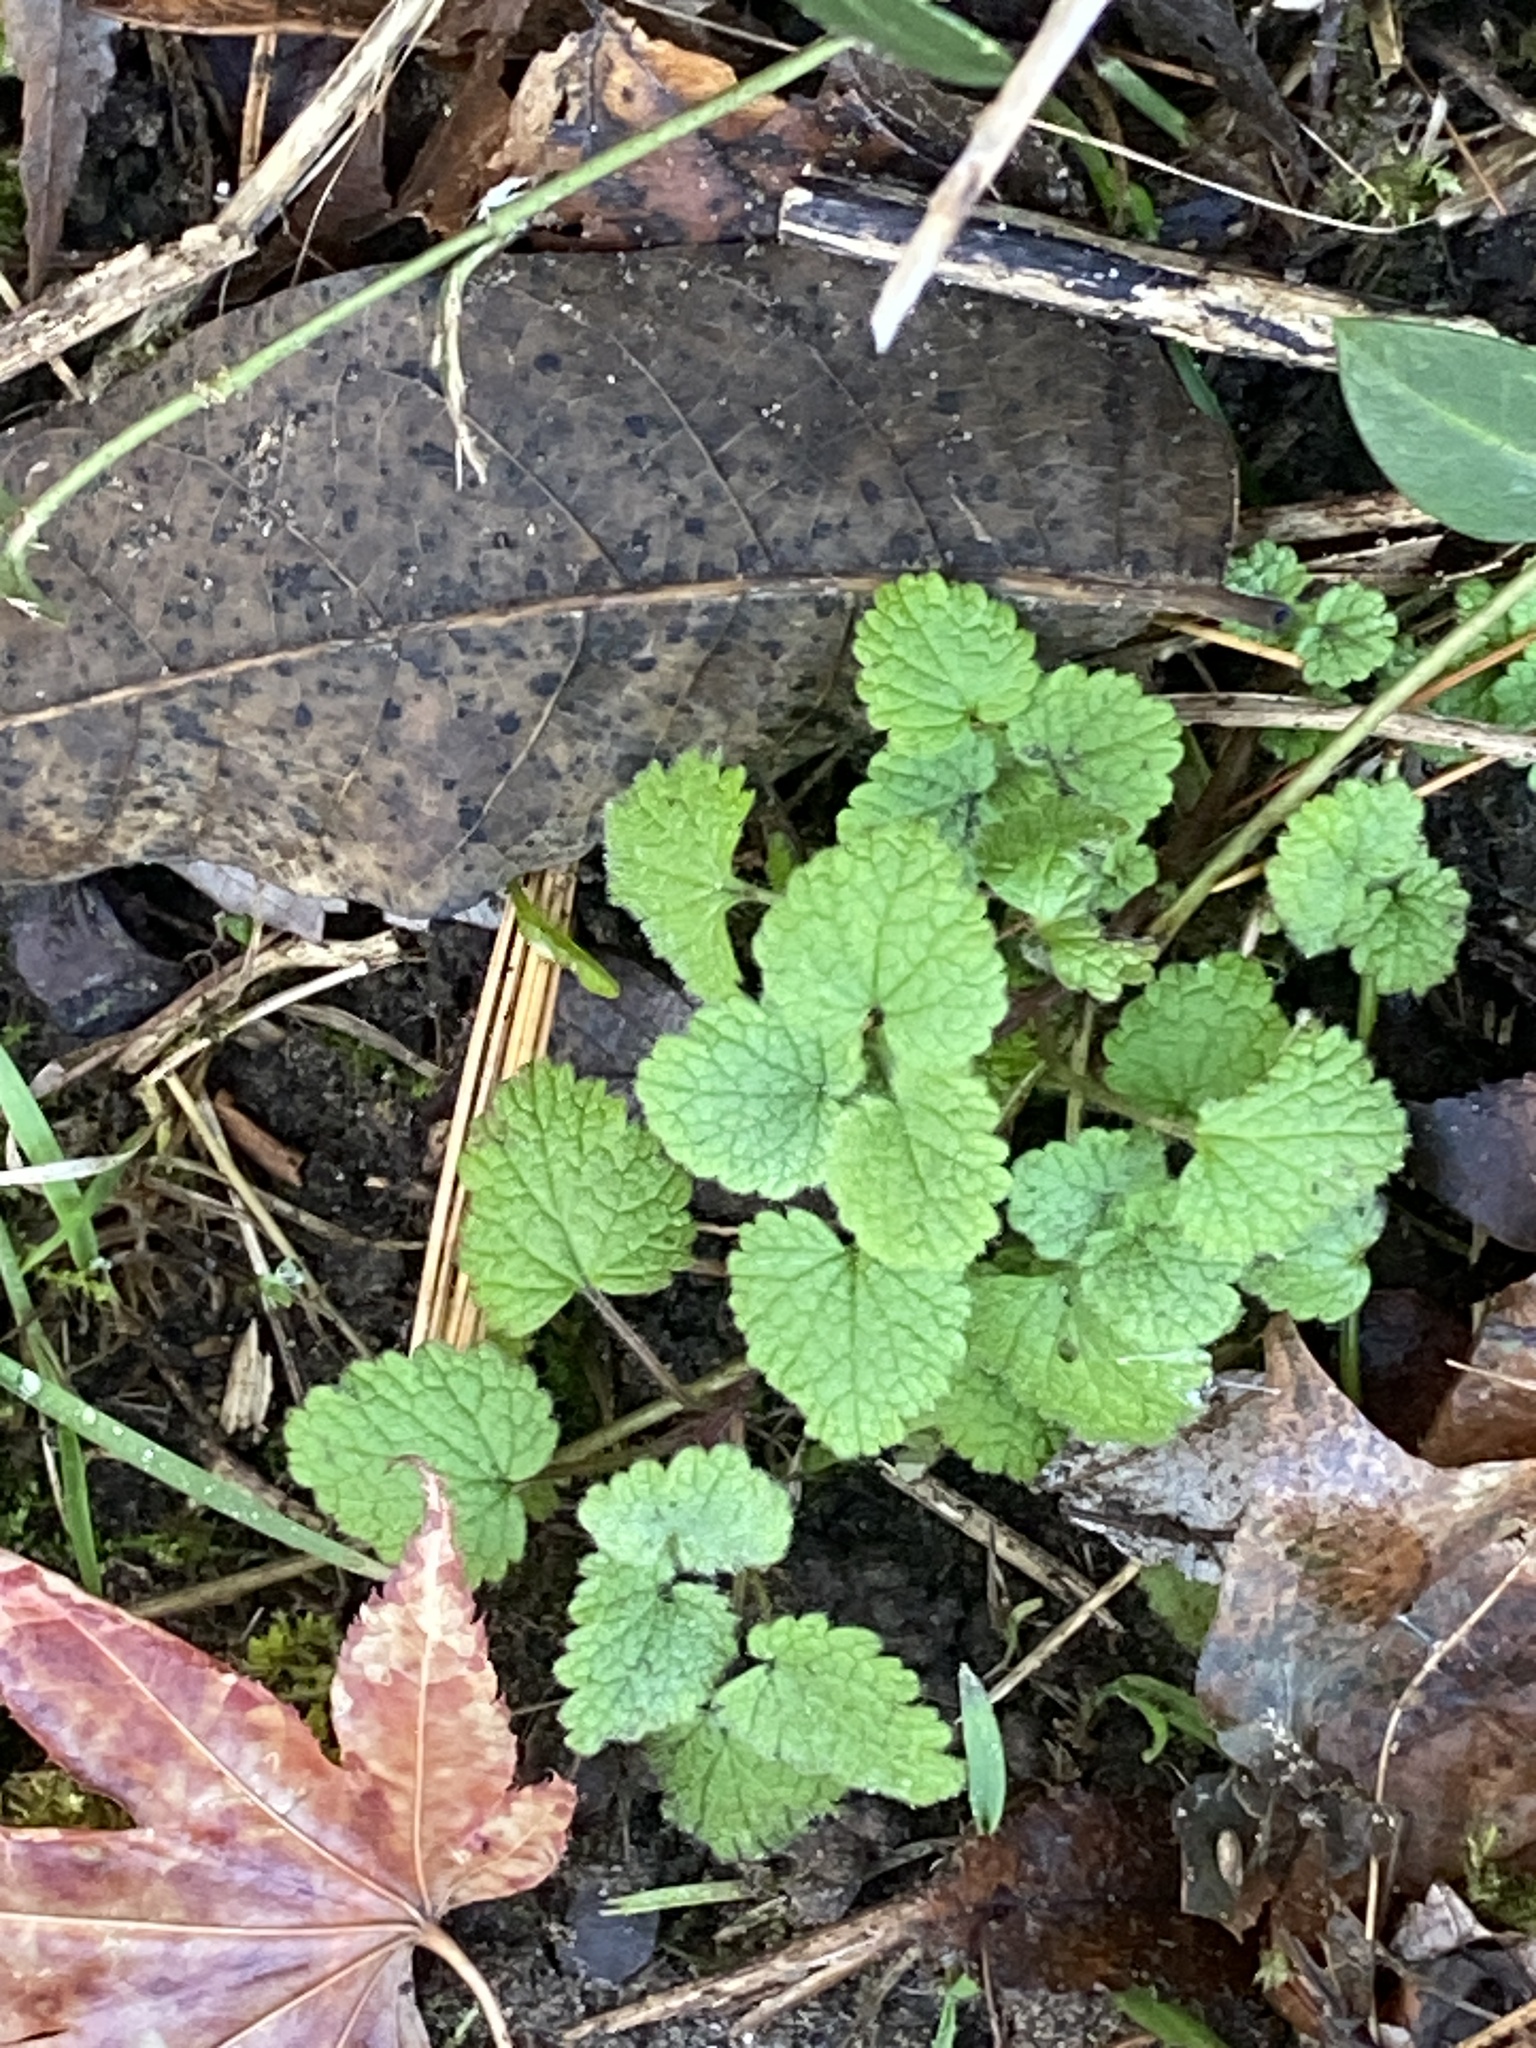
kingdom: Plantae
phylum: Tracheophyta
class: Magnoliopsida
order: Lamiales
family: Lamiaceae
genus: Lamium
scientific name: Lamium purpureum
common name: Red dead-nettle
